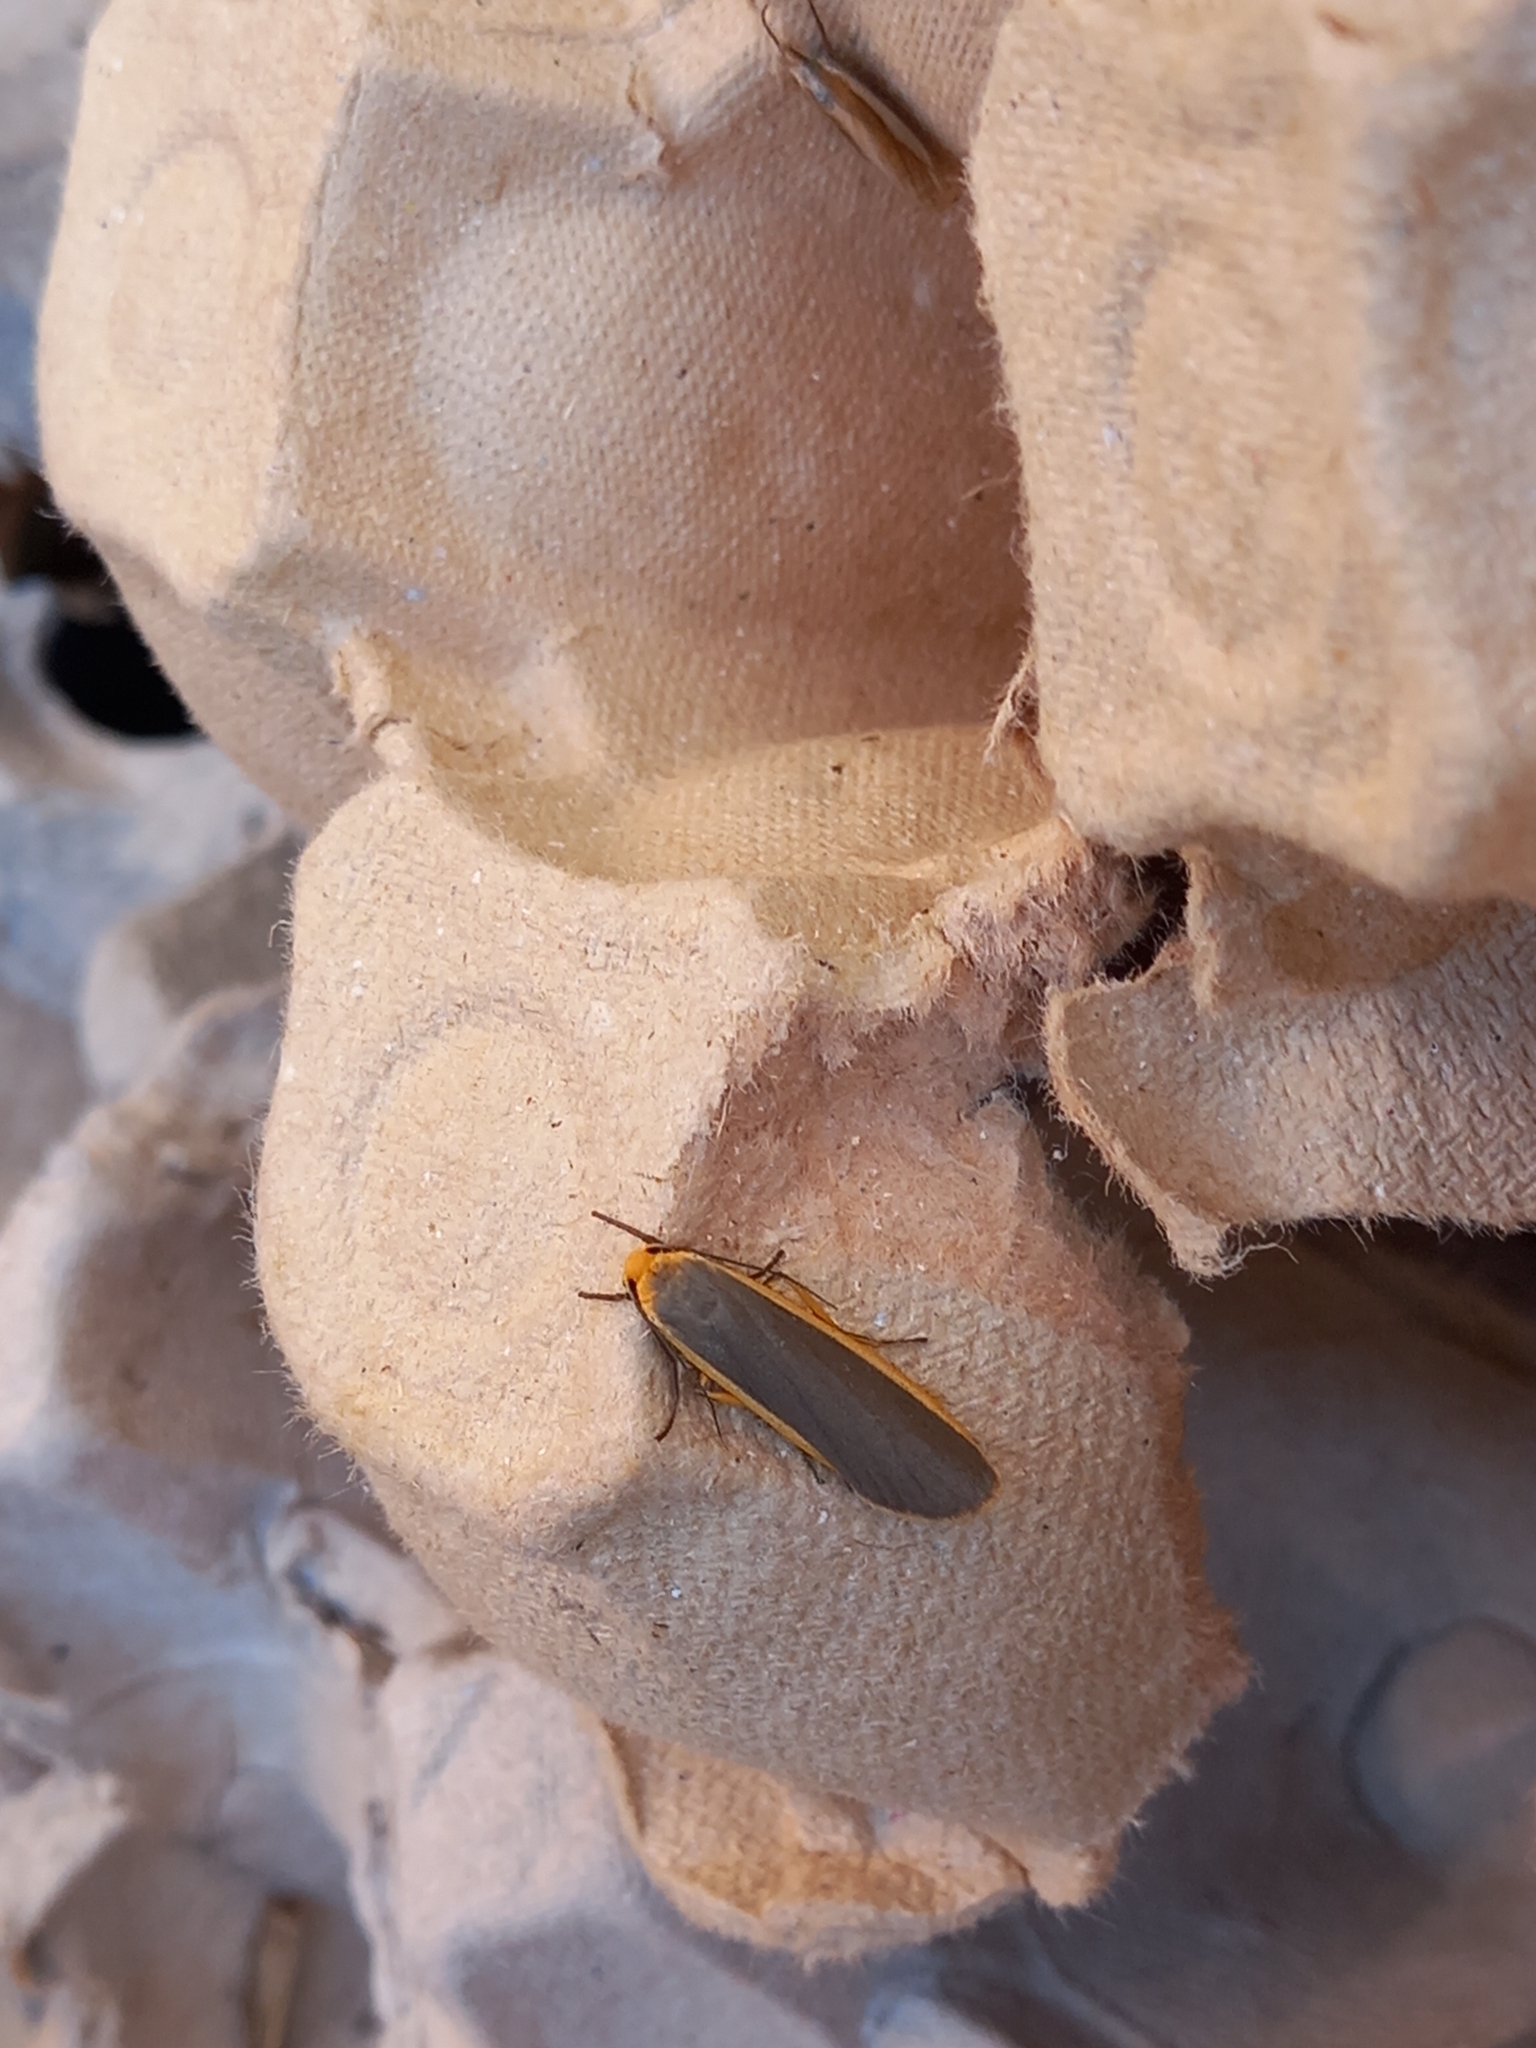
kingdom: Animalia
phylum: Arthropoda
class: Insecta
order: Lepidoptera
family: Erebidae
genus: Nyea
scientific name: Nyea lurideola
